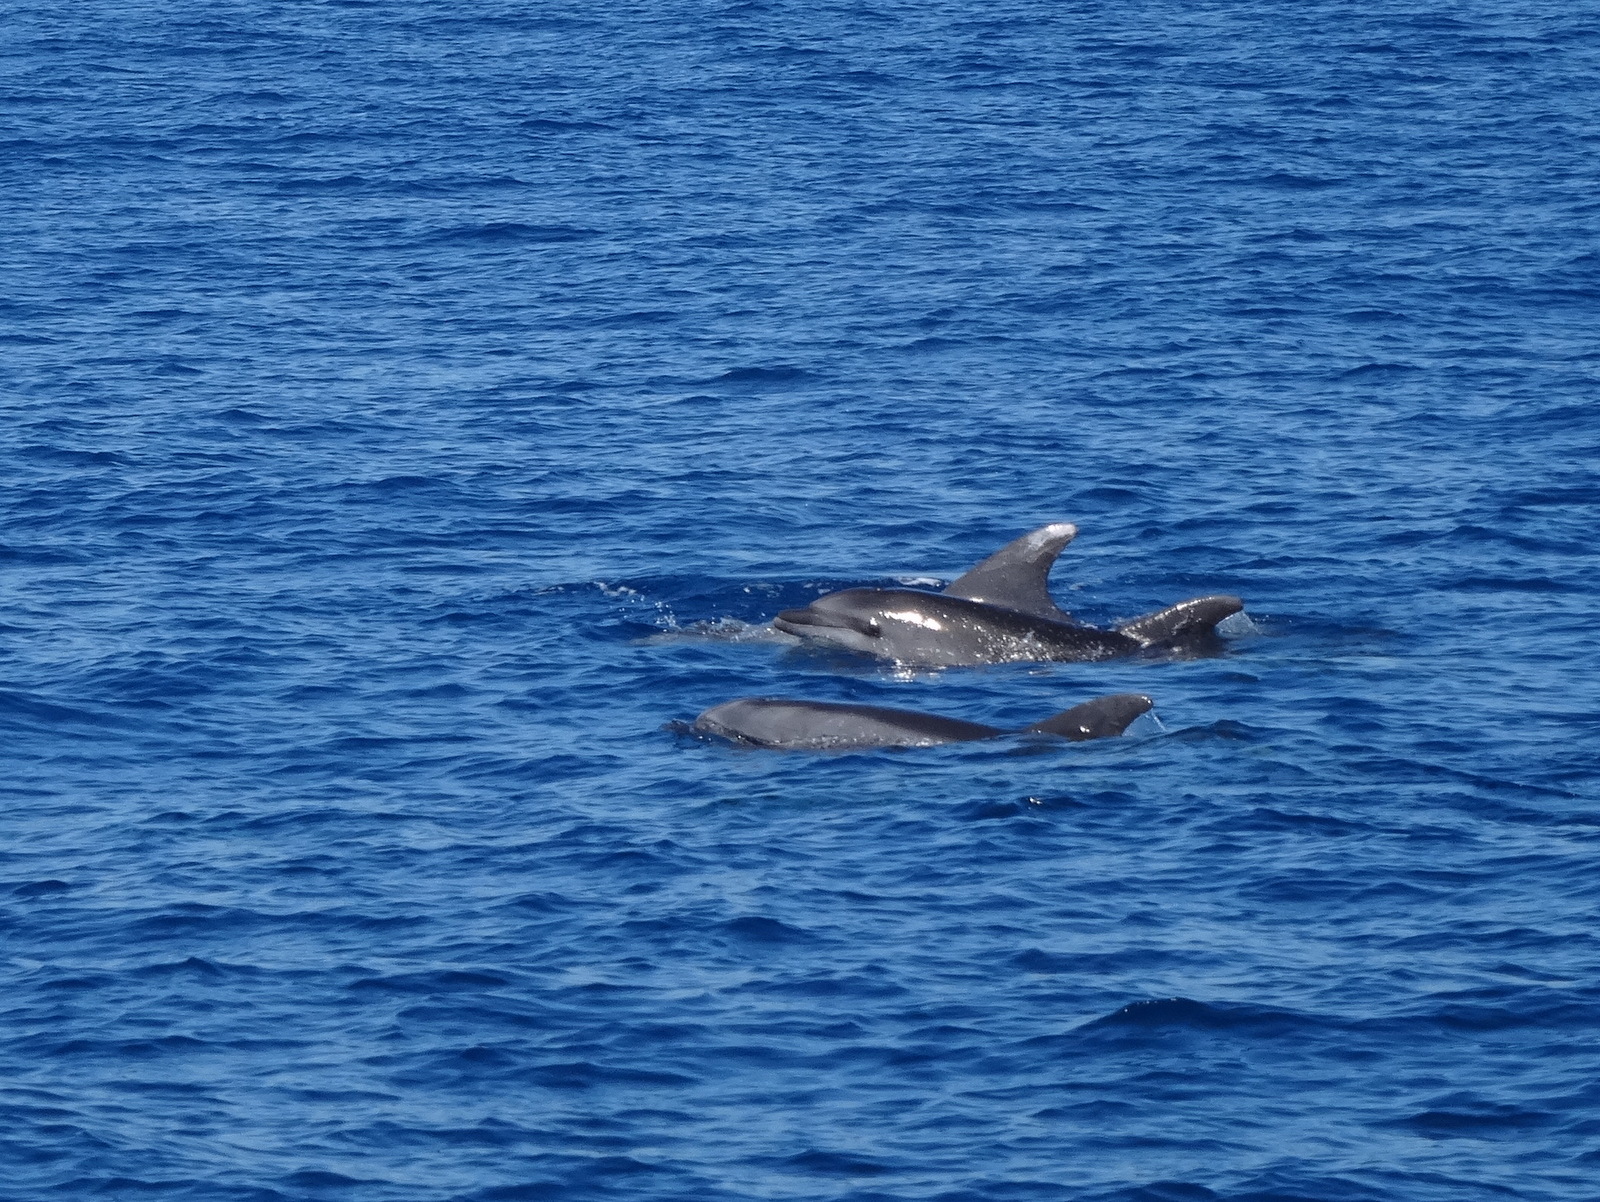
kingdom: Animalia
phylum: Chordata
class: Mammalia
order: Cetacea
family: Delphinidae
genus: Tursiops
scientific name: Tursiops truncatus
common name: Bottlenose dolphin
